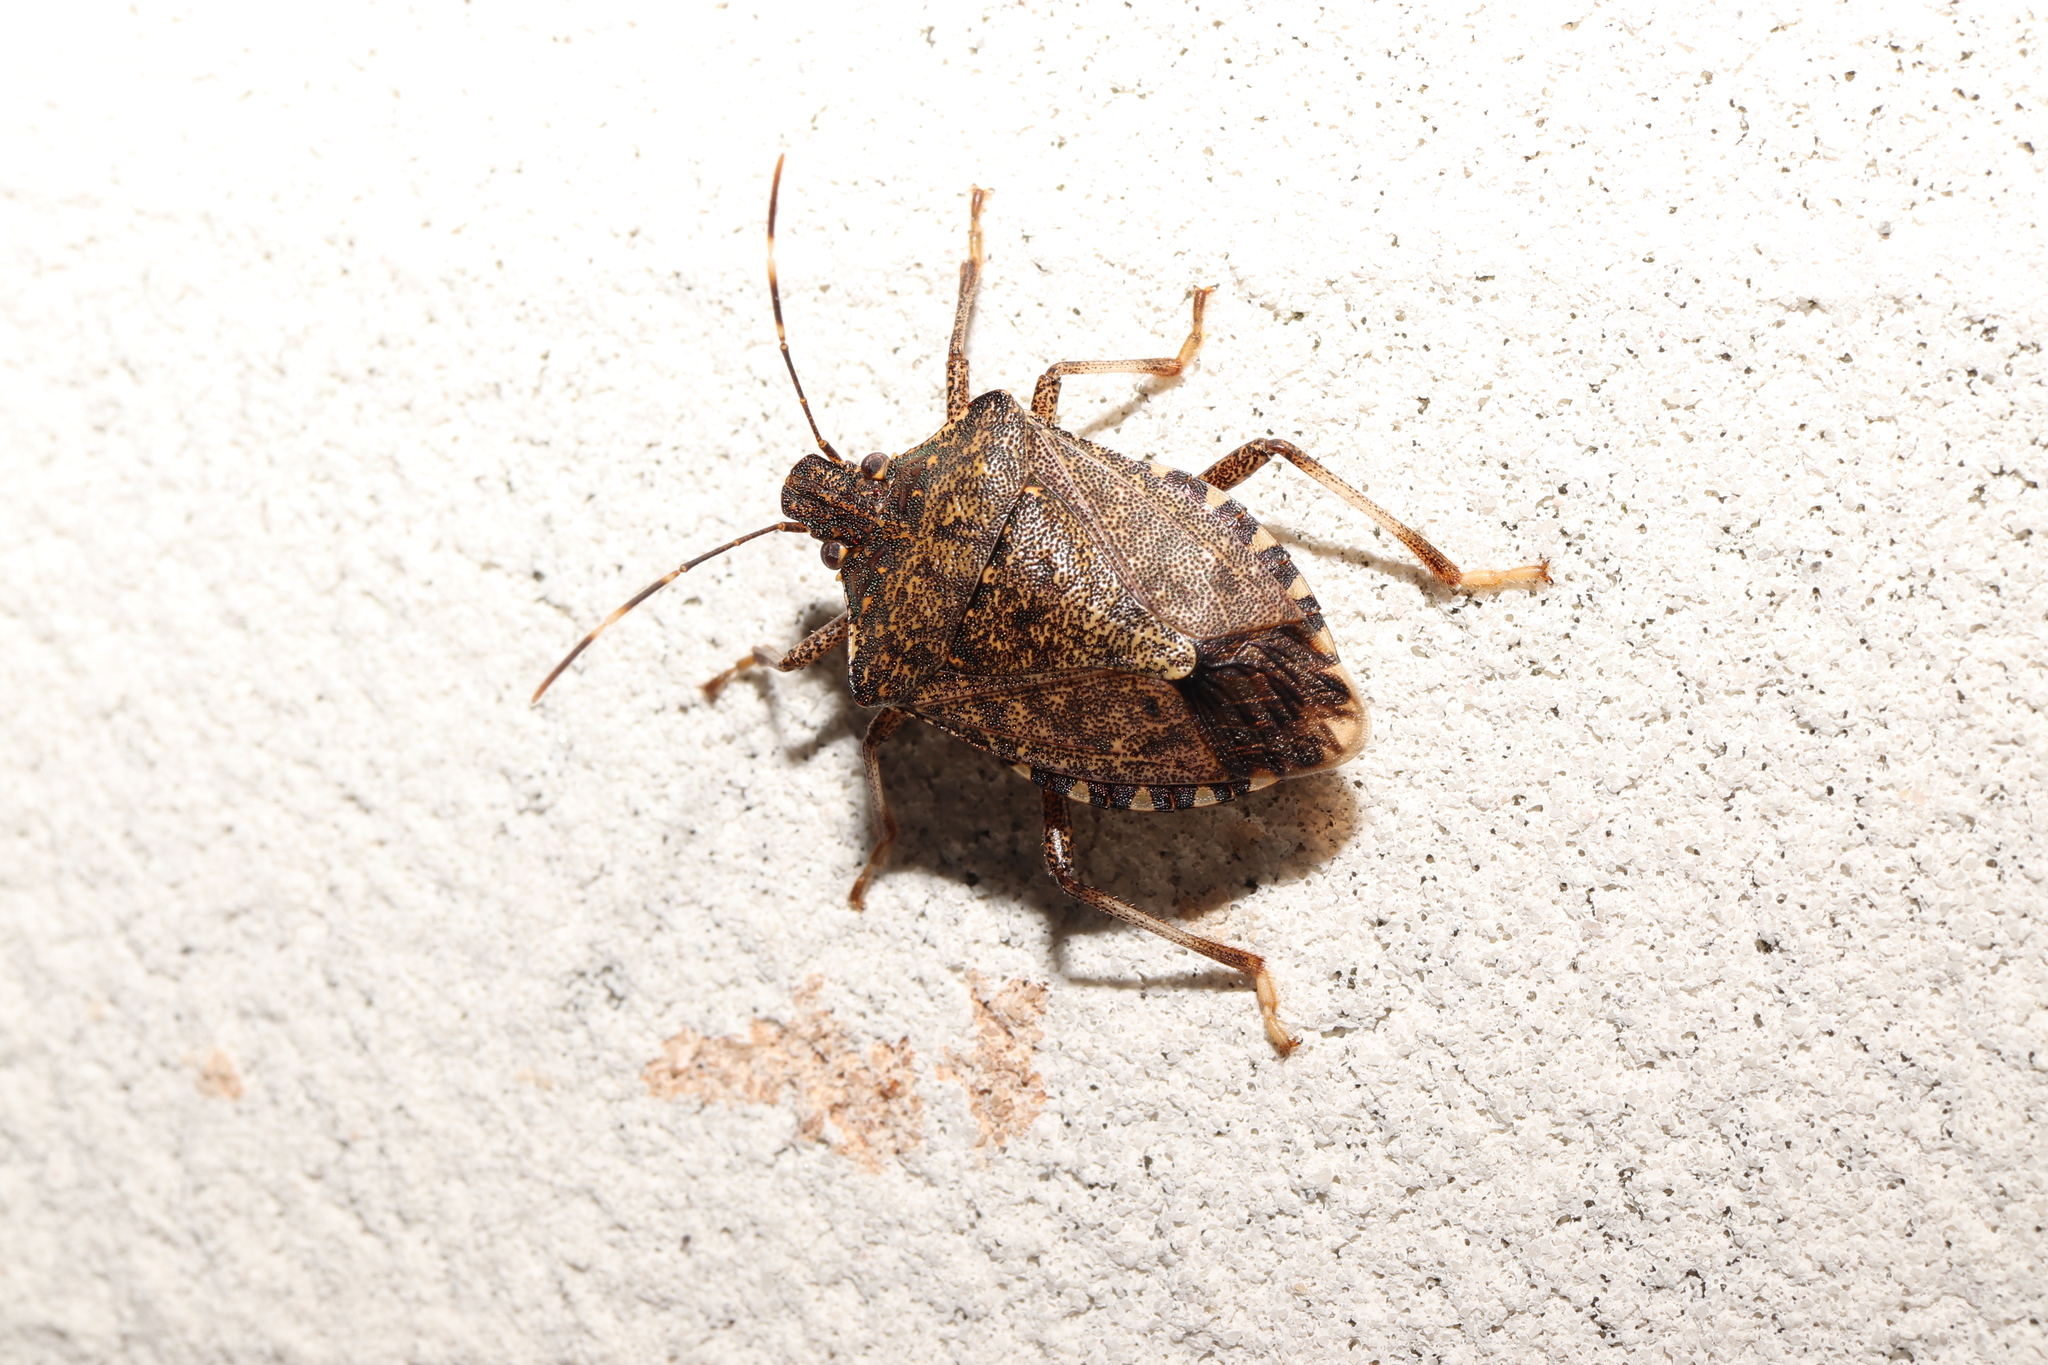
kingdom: Animalia
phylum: Arthropoda
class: Insecta
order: Hemiptera
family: Pentatomidae
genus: Halyomorpha
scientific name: Halyomorpha halys
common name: Brown marmorated stink bug
